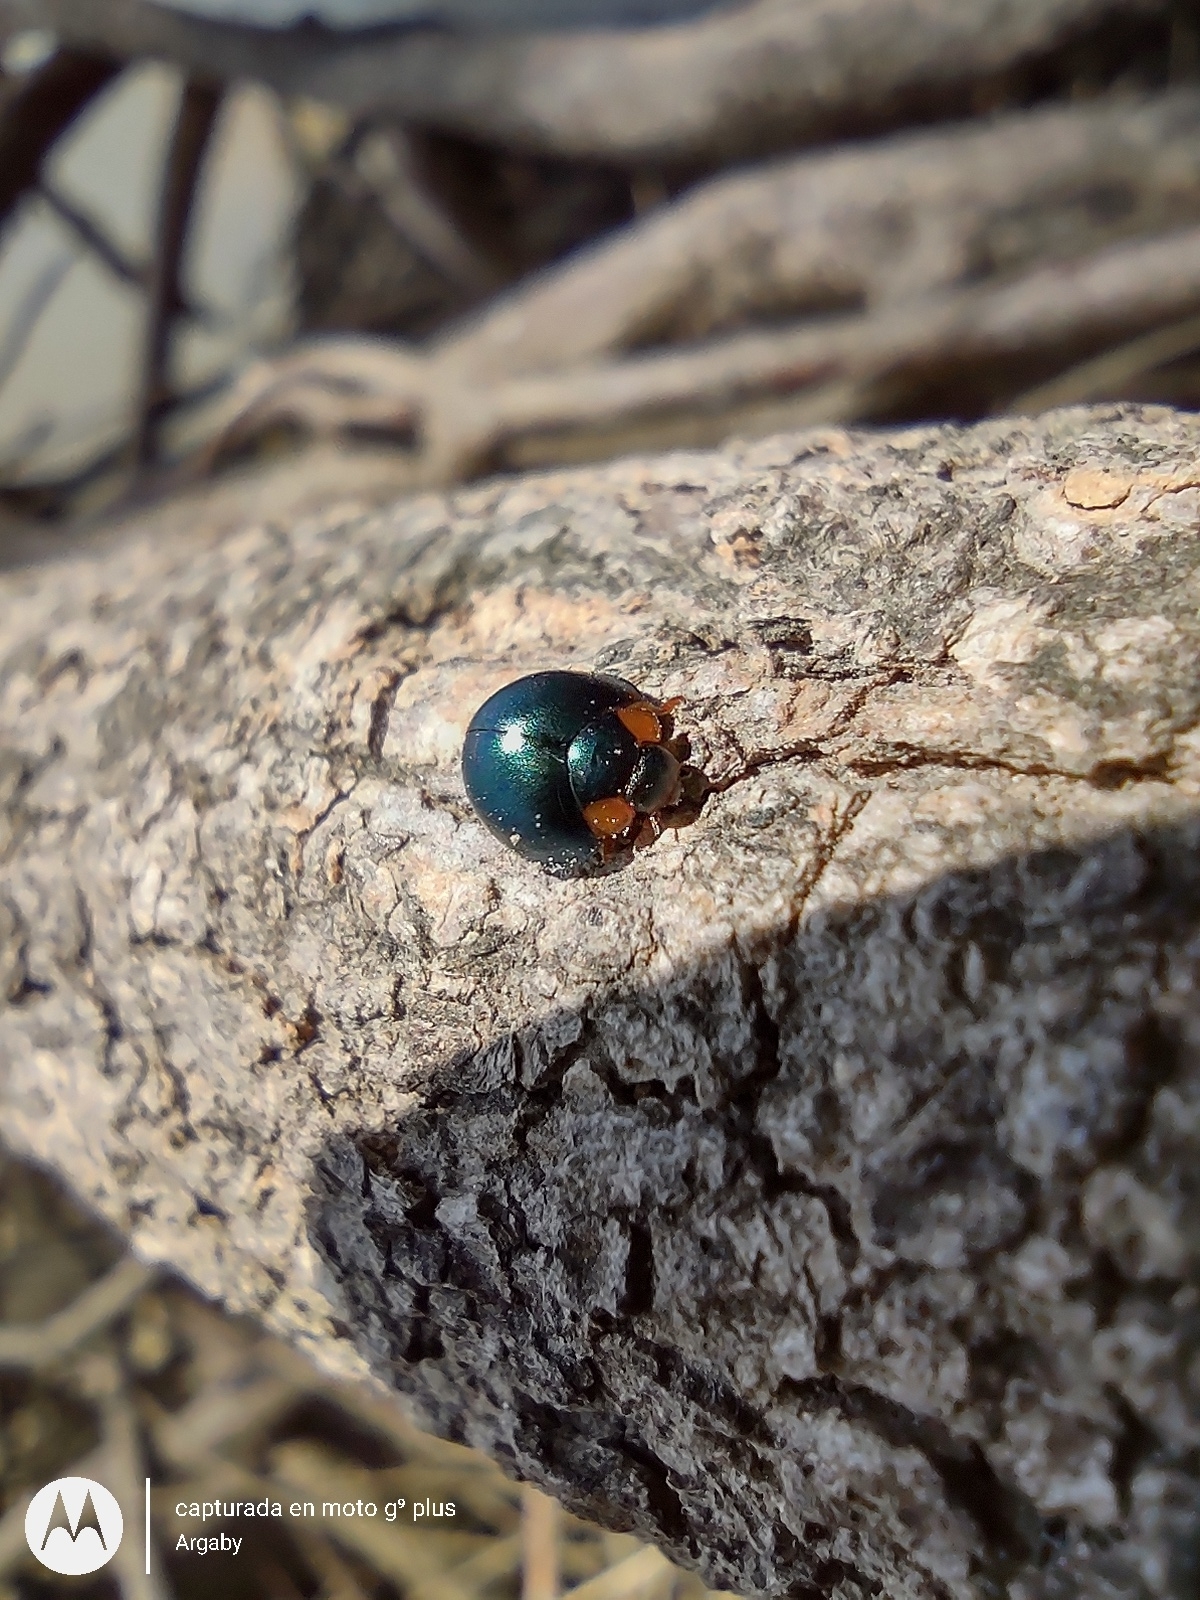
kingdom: Animalia
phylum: Arthropoda
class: Insecta
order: Coleoptera
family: Coccinellidae
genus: Curinus
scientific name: Curinus coeruleus
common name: Ladybird beetle
